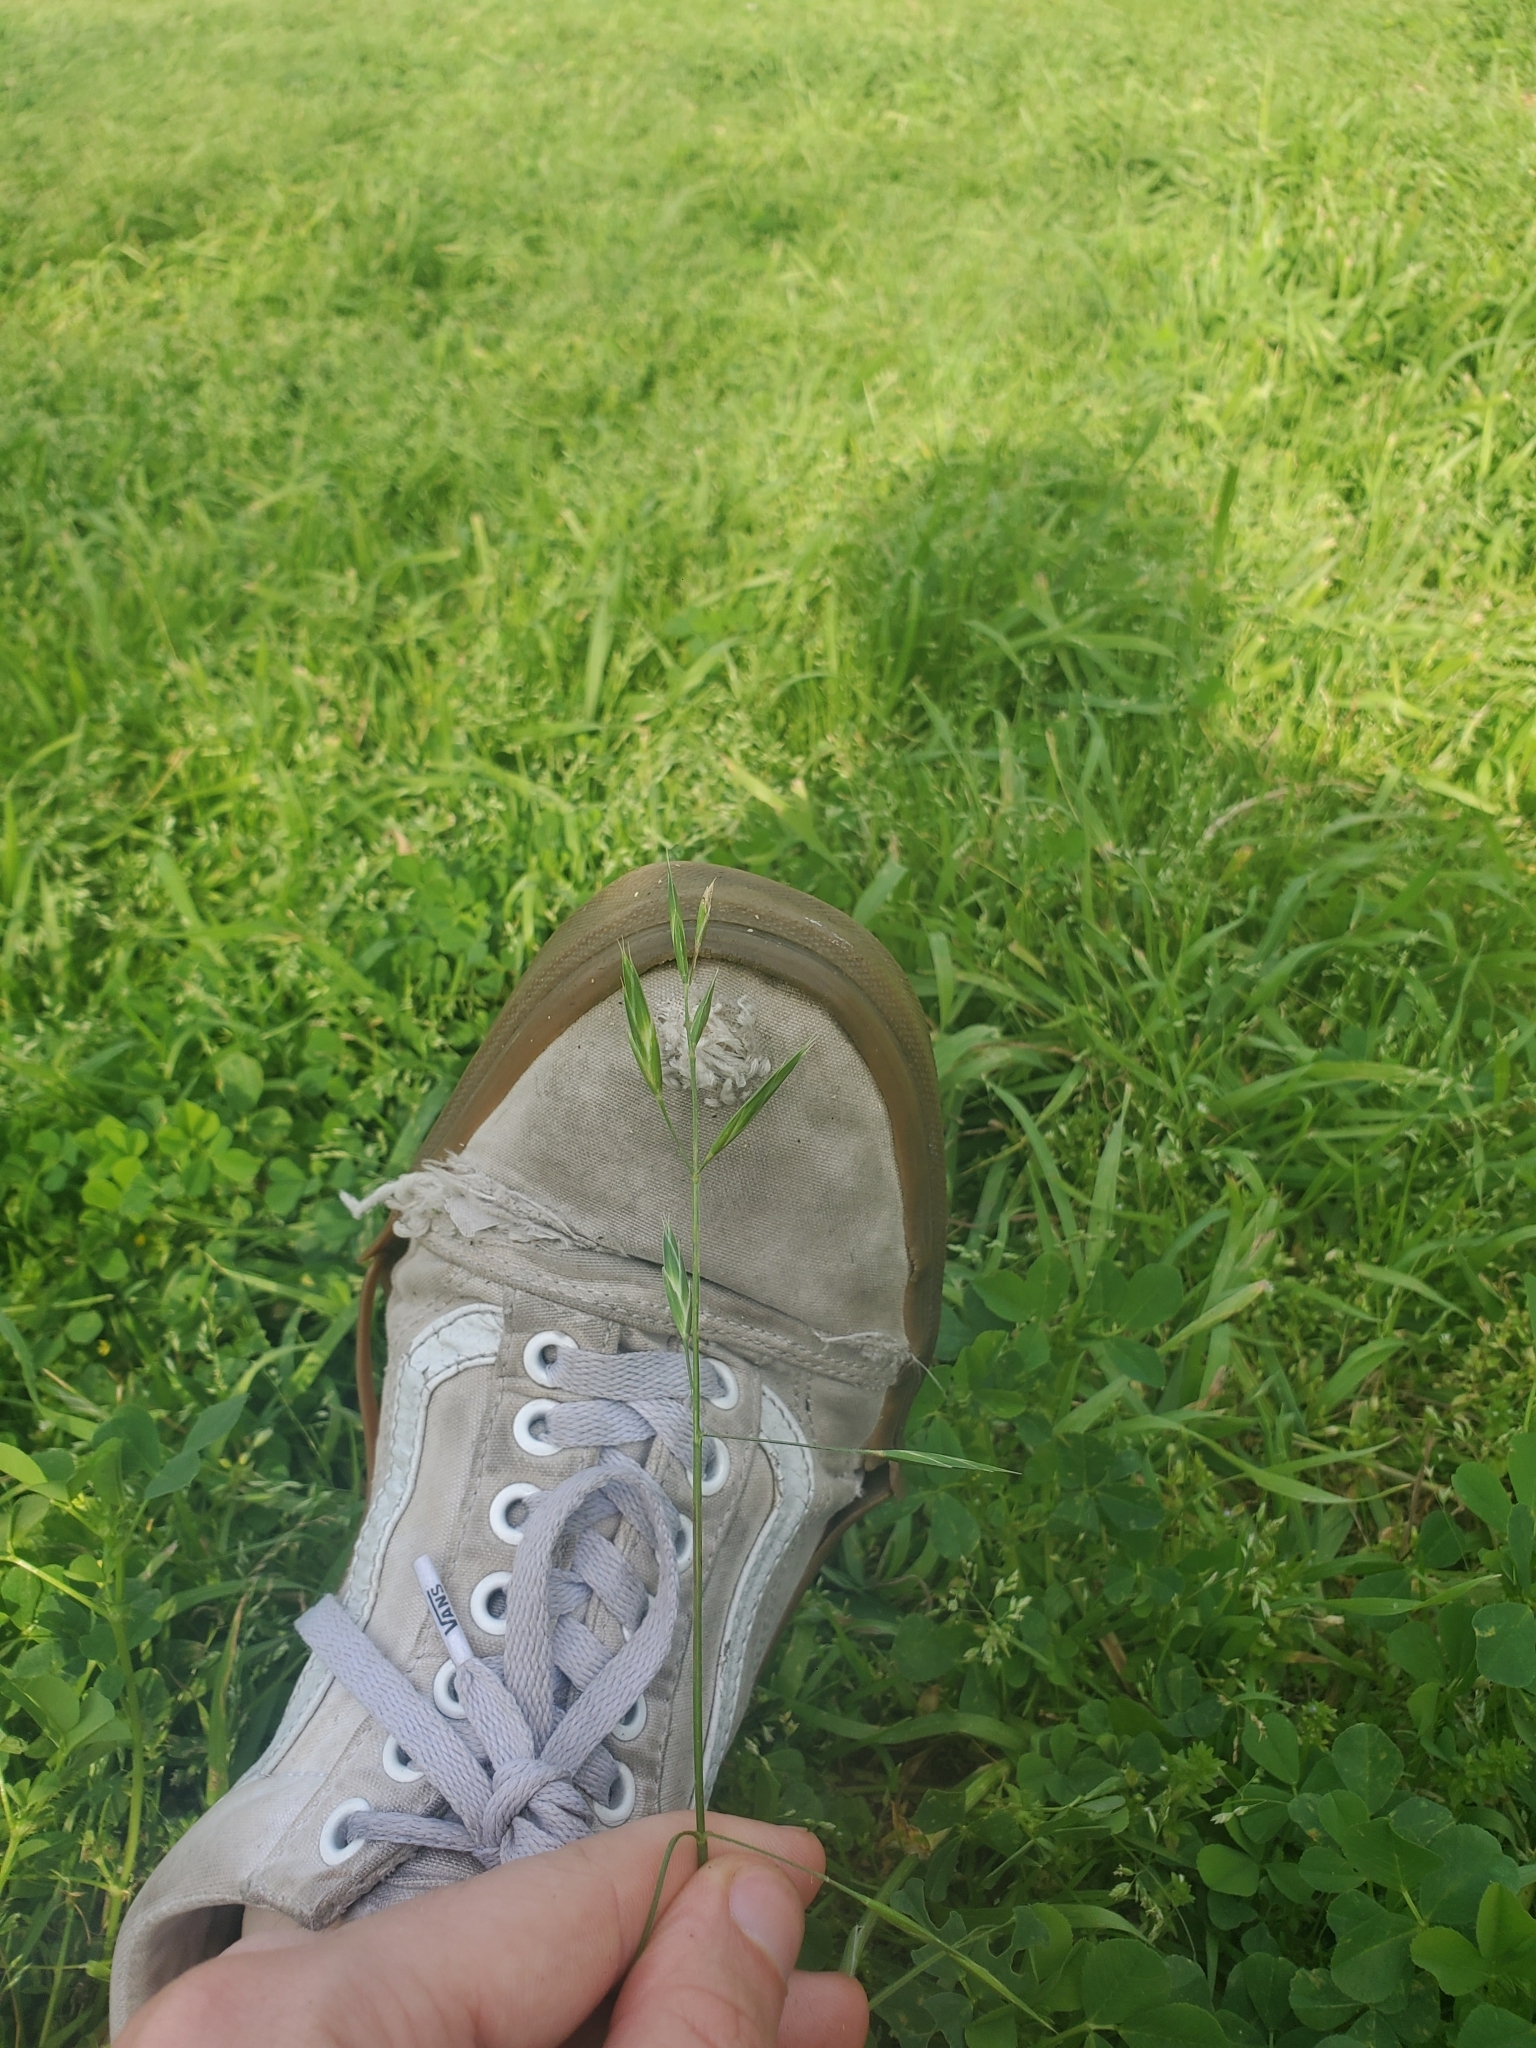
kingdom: Plantae
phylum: Tracheophyta
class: Liliopsida
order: Poales
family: Poaceae
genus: Bromus
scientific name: Bromus catharticus
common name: Rescuegrass
